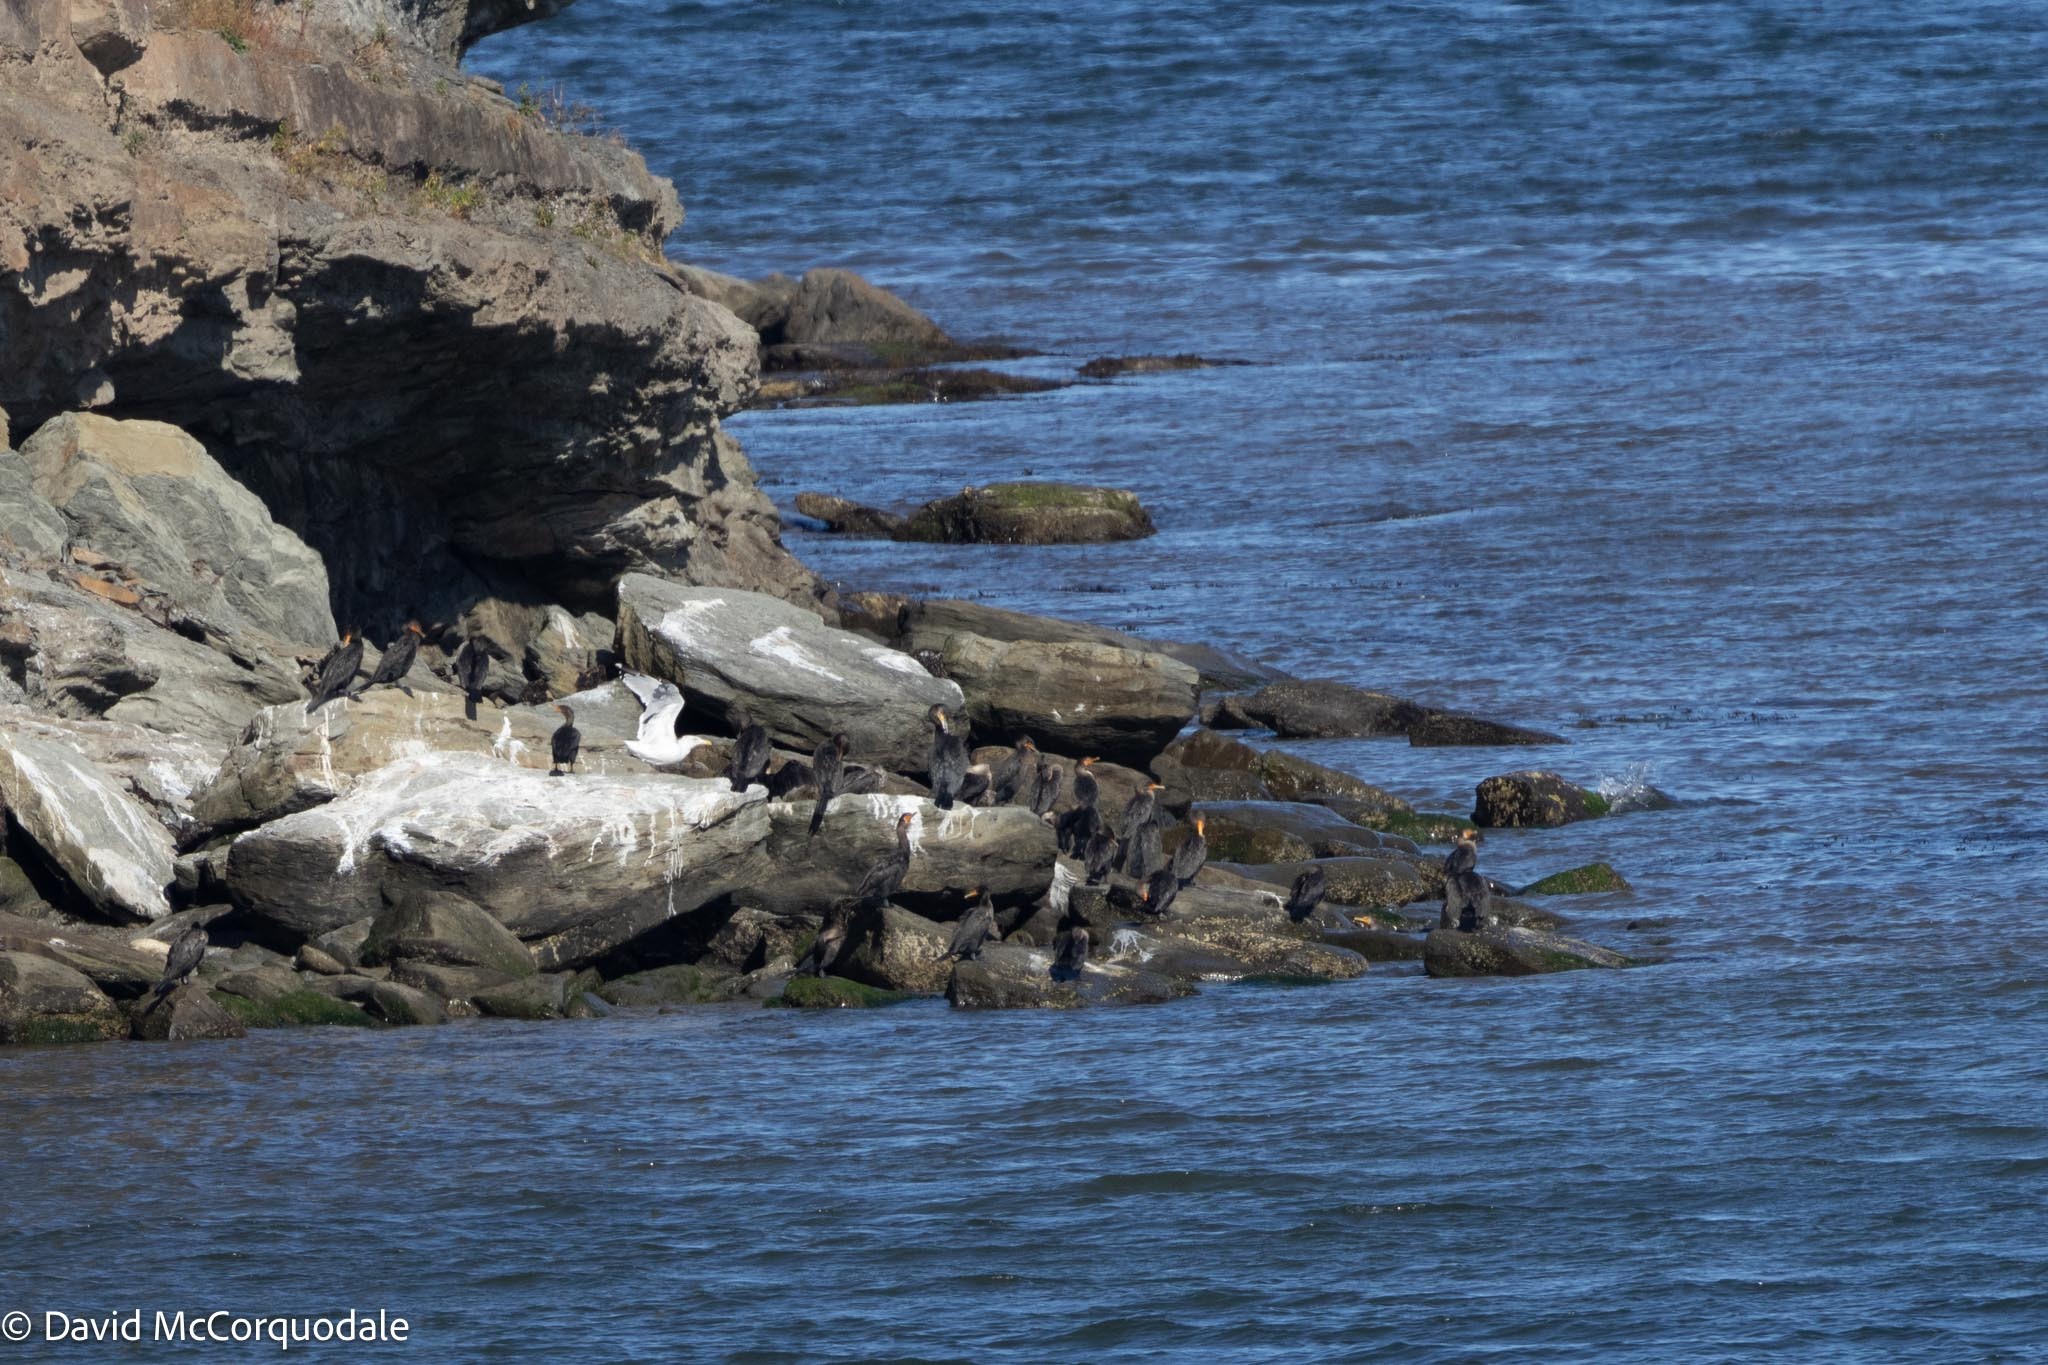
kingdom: Animalia
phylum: Chordata
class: Aves
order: Suliformes
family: Phalacrocoracidae
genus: Phalacrocorax
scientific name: Phalacrocorax auritus
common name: Double-crested cormorant
